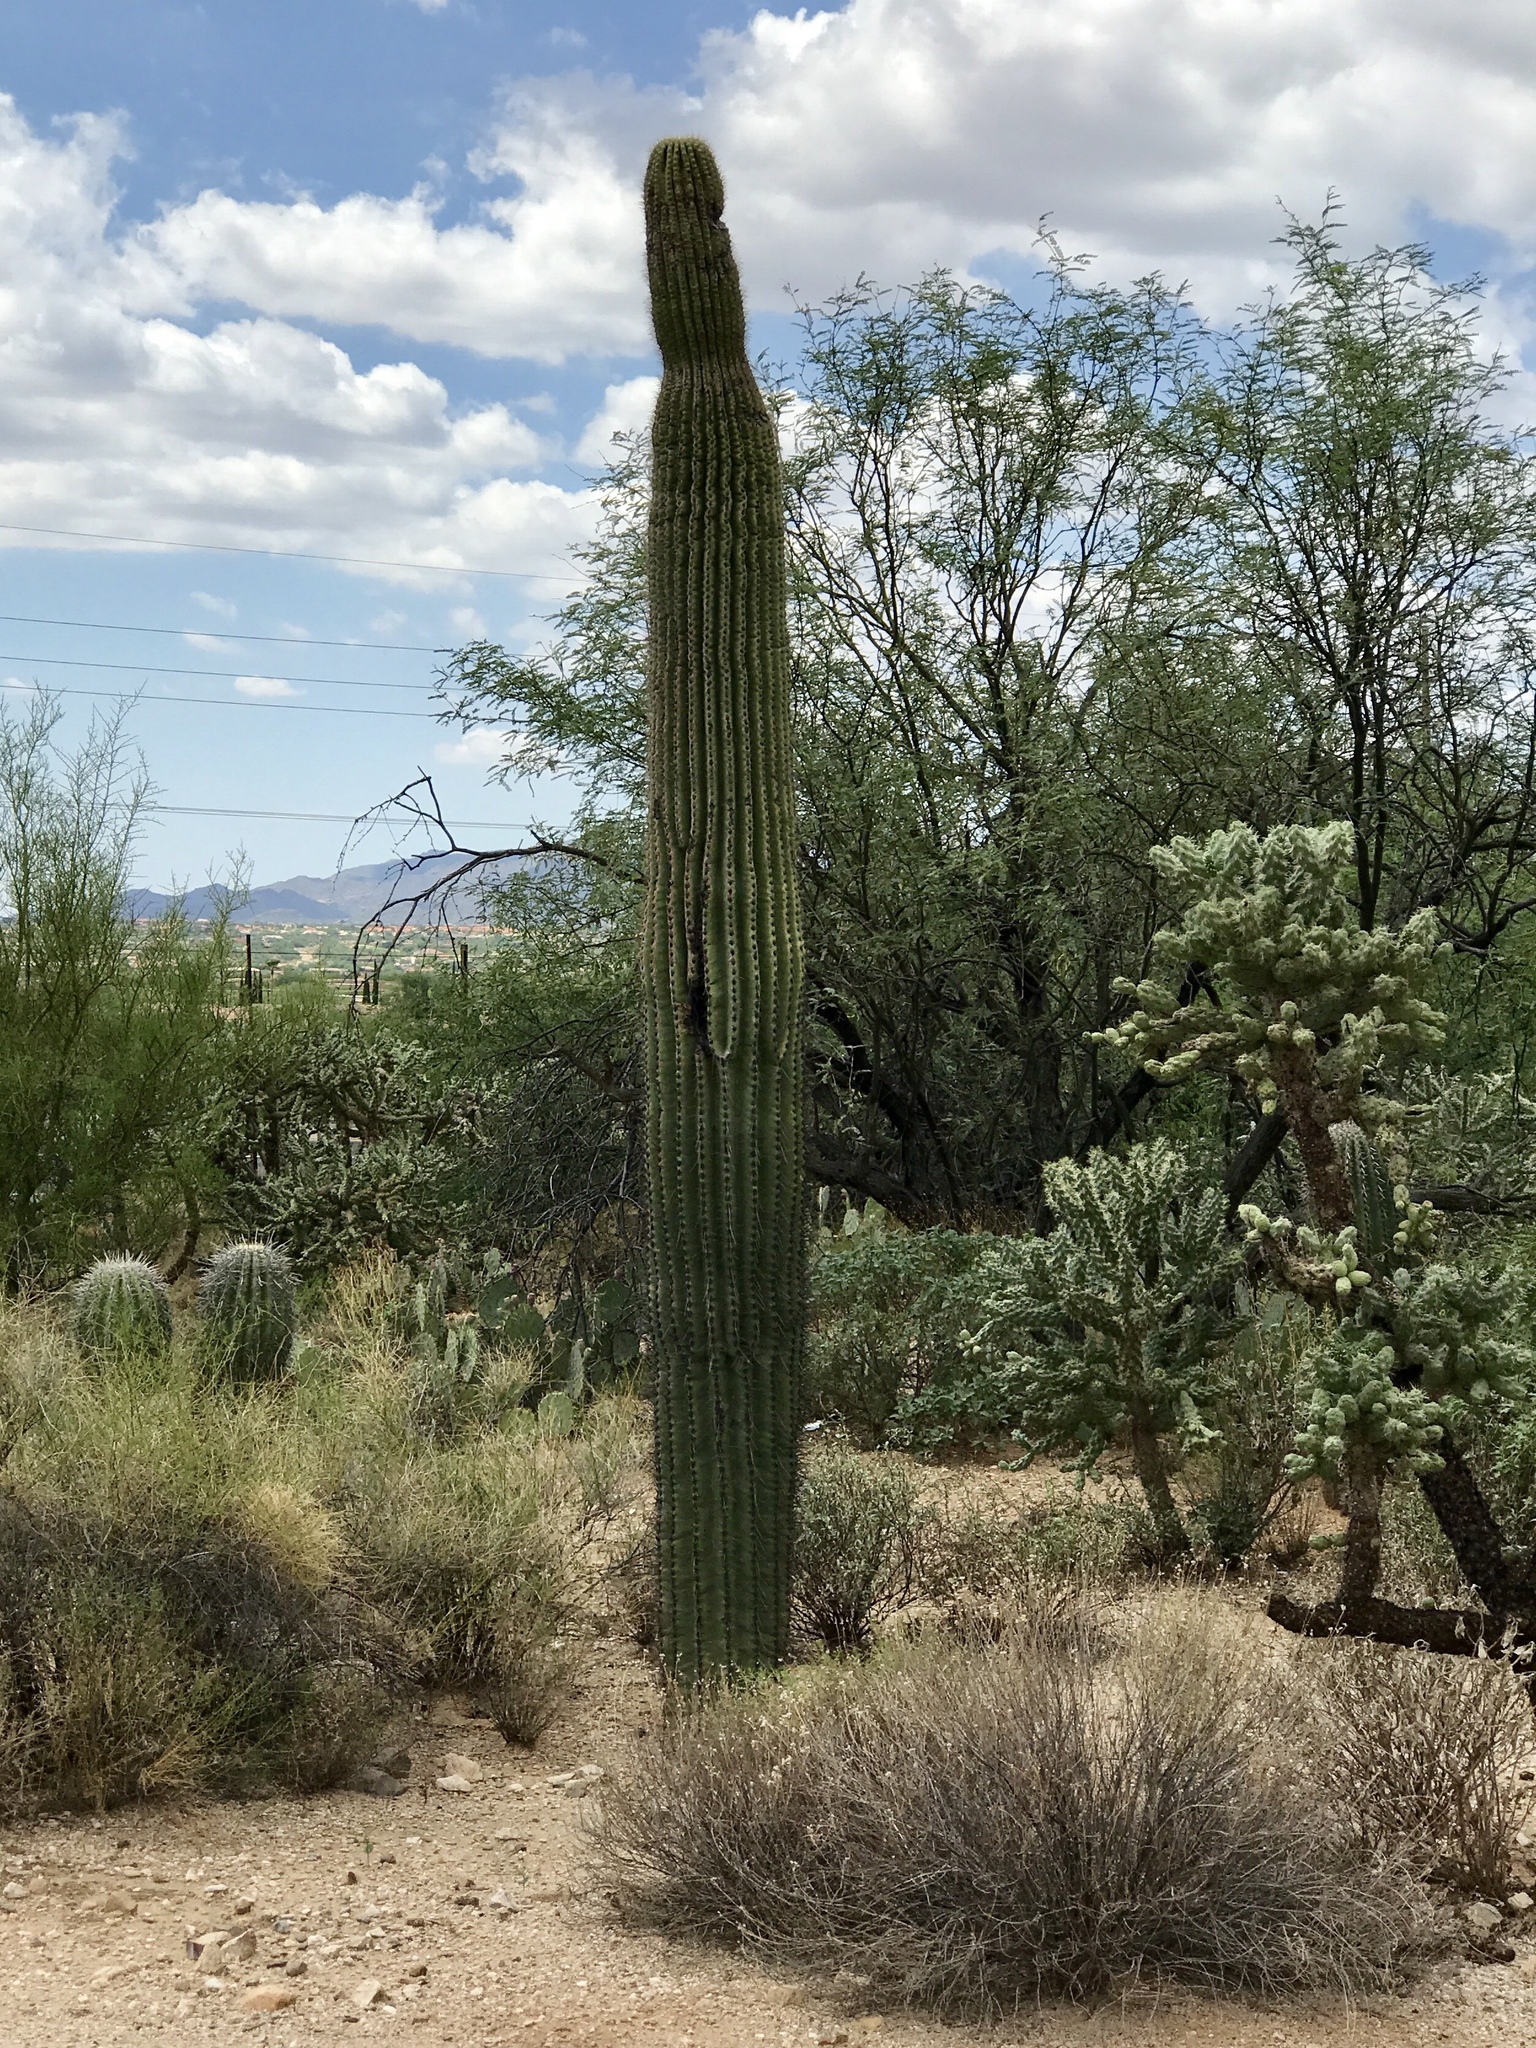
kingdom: Plantae
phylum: Tracheophyta
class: Magnoliopsida
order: Caryophyllales
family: Cactaceae
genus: Carnegiea
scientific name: Carnegiea gigantea
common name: Saguaro
